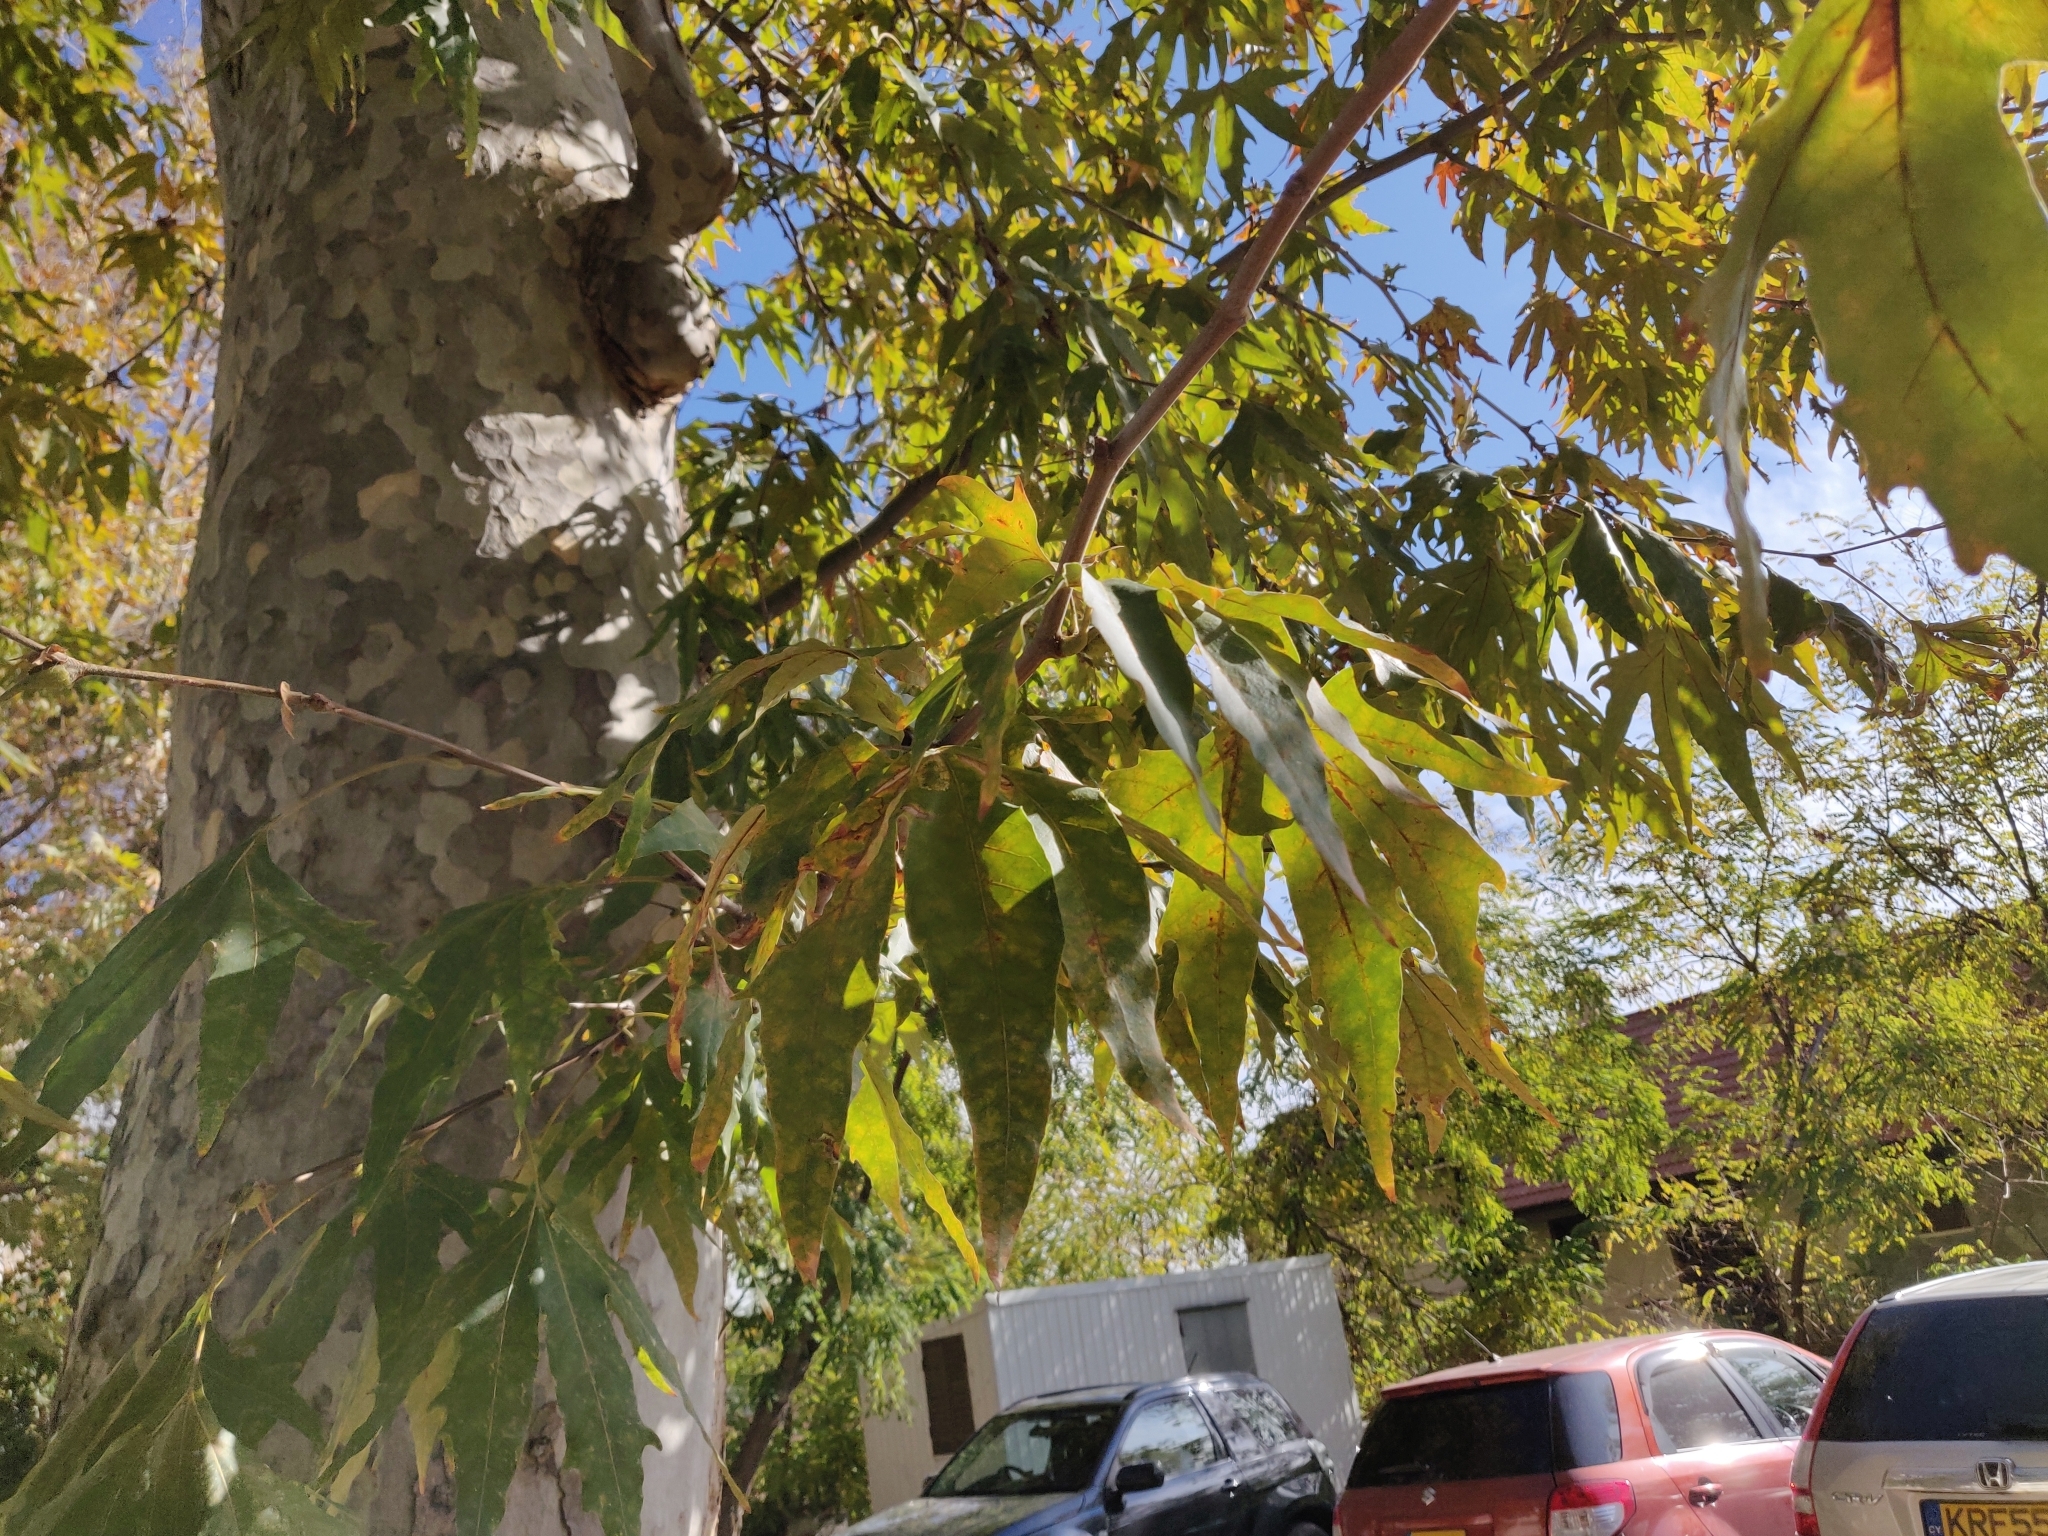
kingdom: Plantae
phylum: Tracheophyta
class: Magnoliopsida
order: Proteales
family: Platanaceae
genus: Platanus
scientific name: Platanus orientalis
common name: Oriental plane
